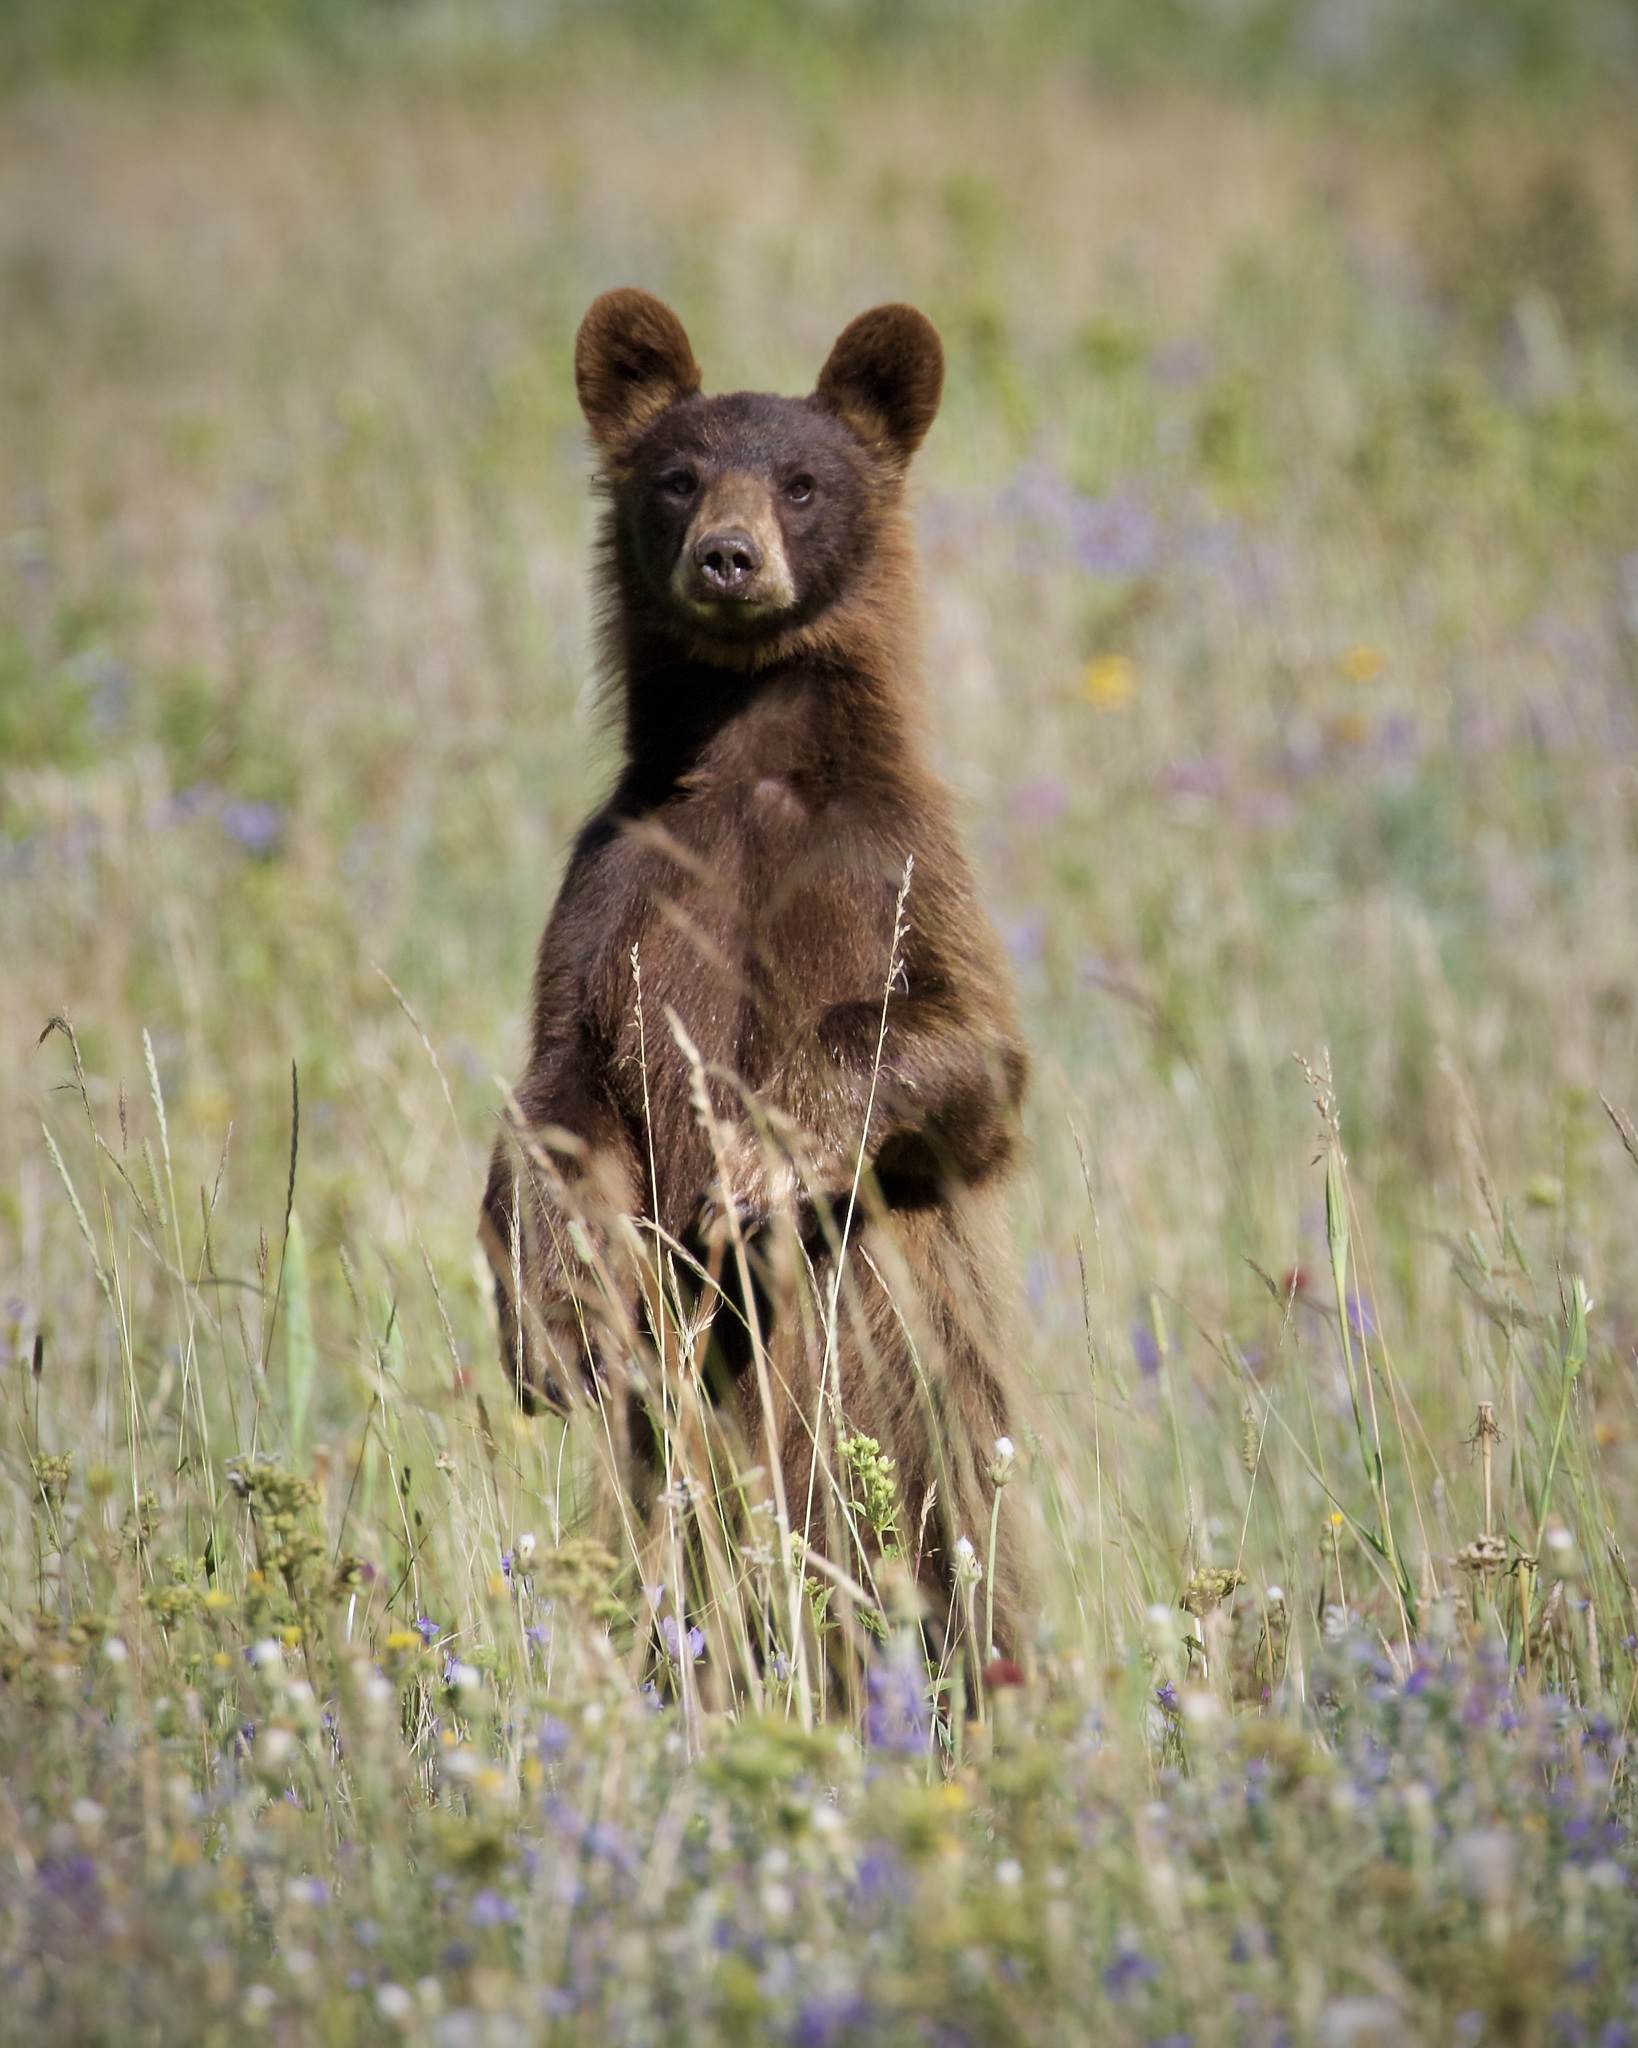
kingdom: Animalia
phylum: Chordata
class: Mammalia
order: Carnivora
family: Ursidae
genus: Ursus
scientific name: Ursus americanus
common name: American black bear
